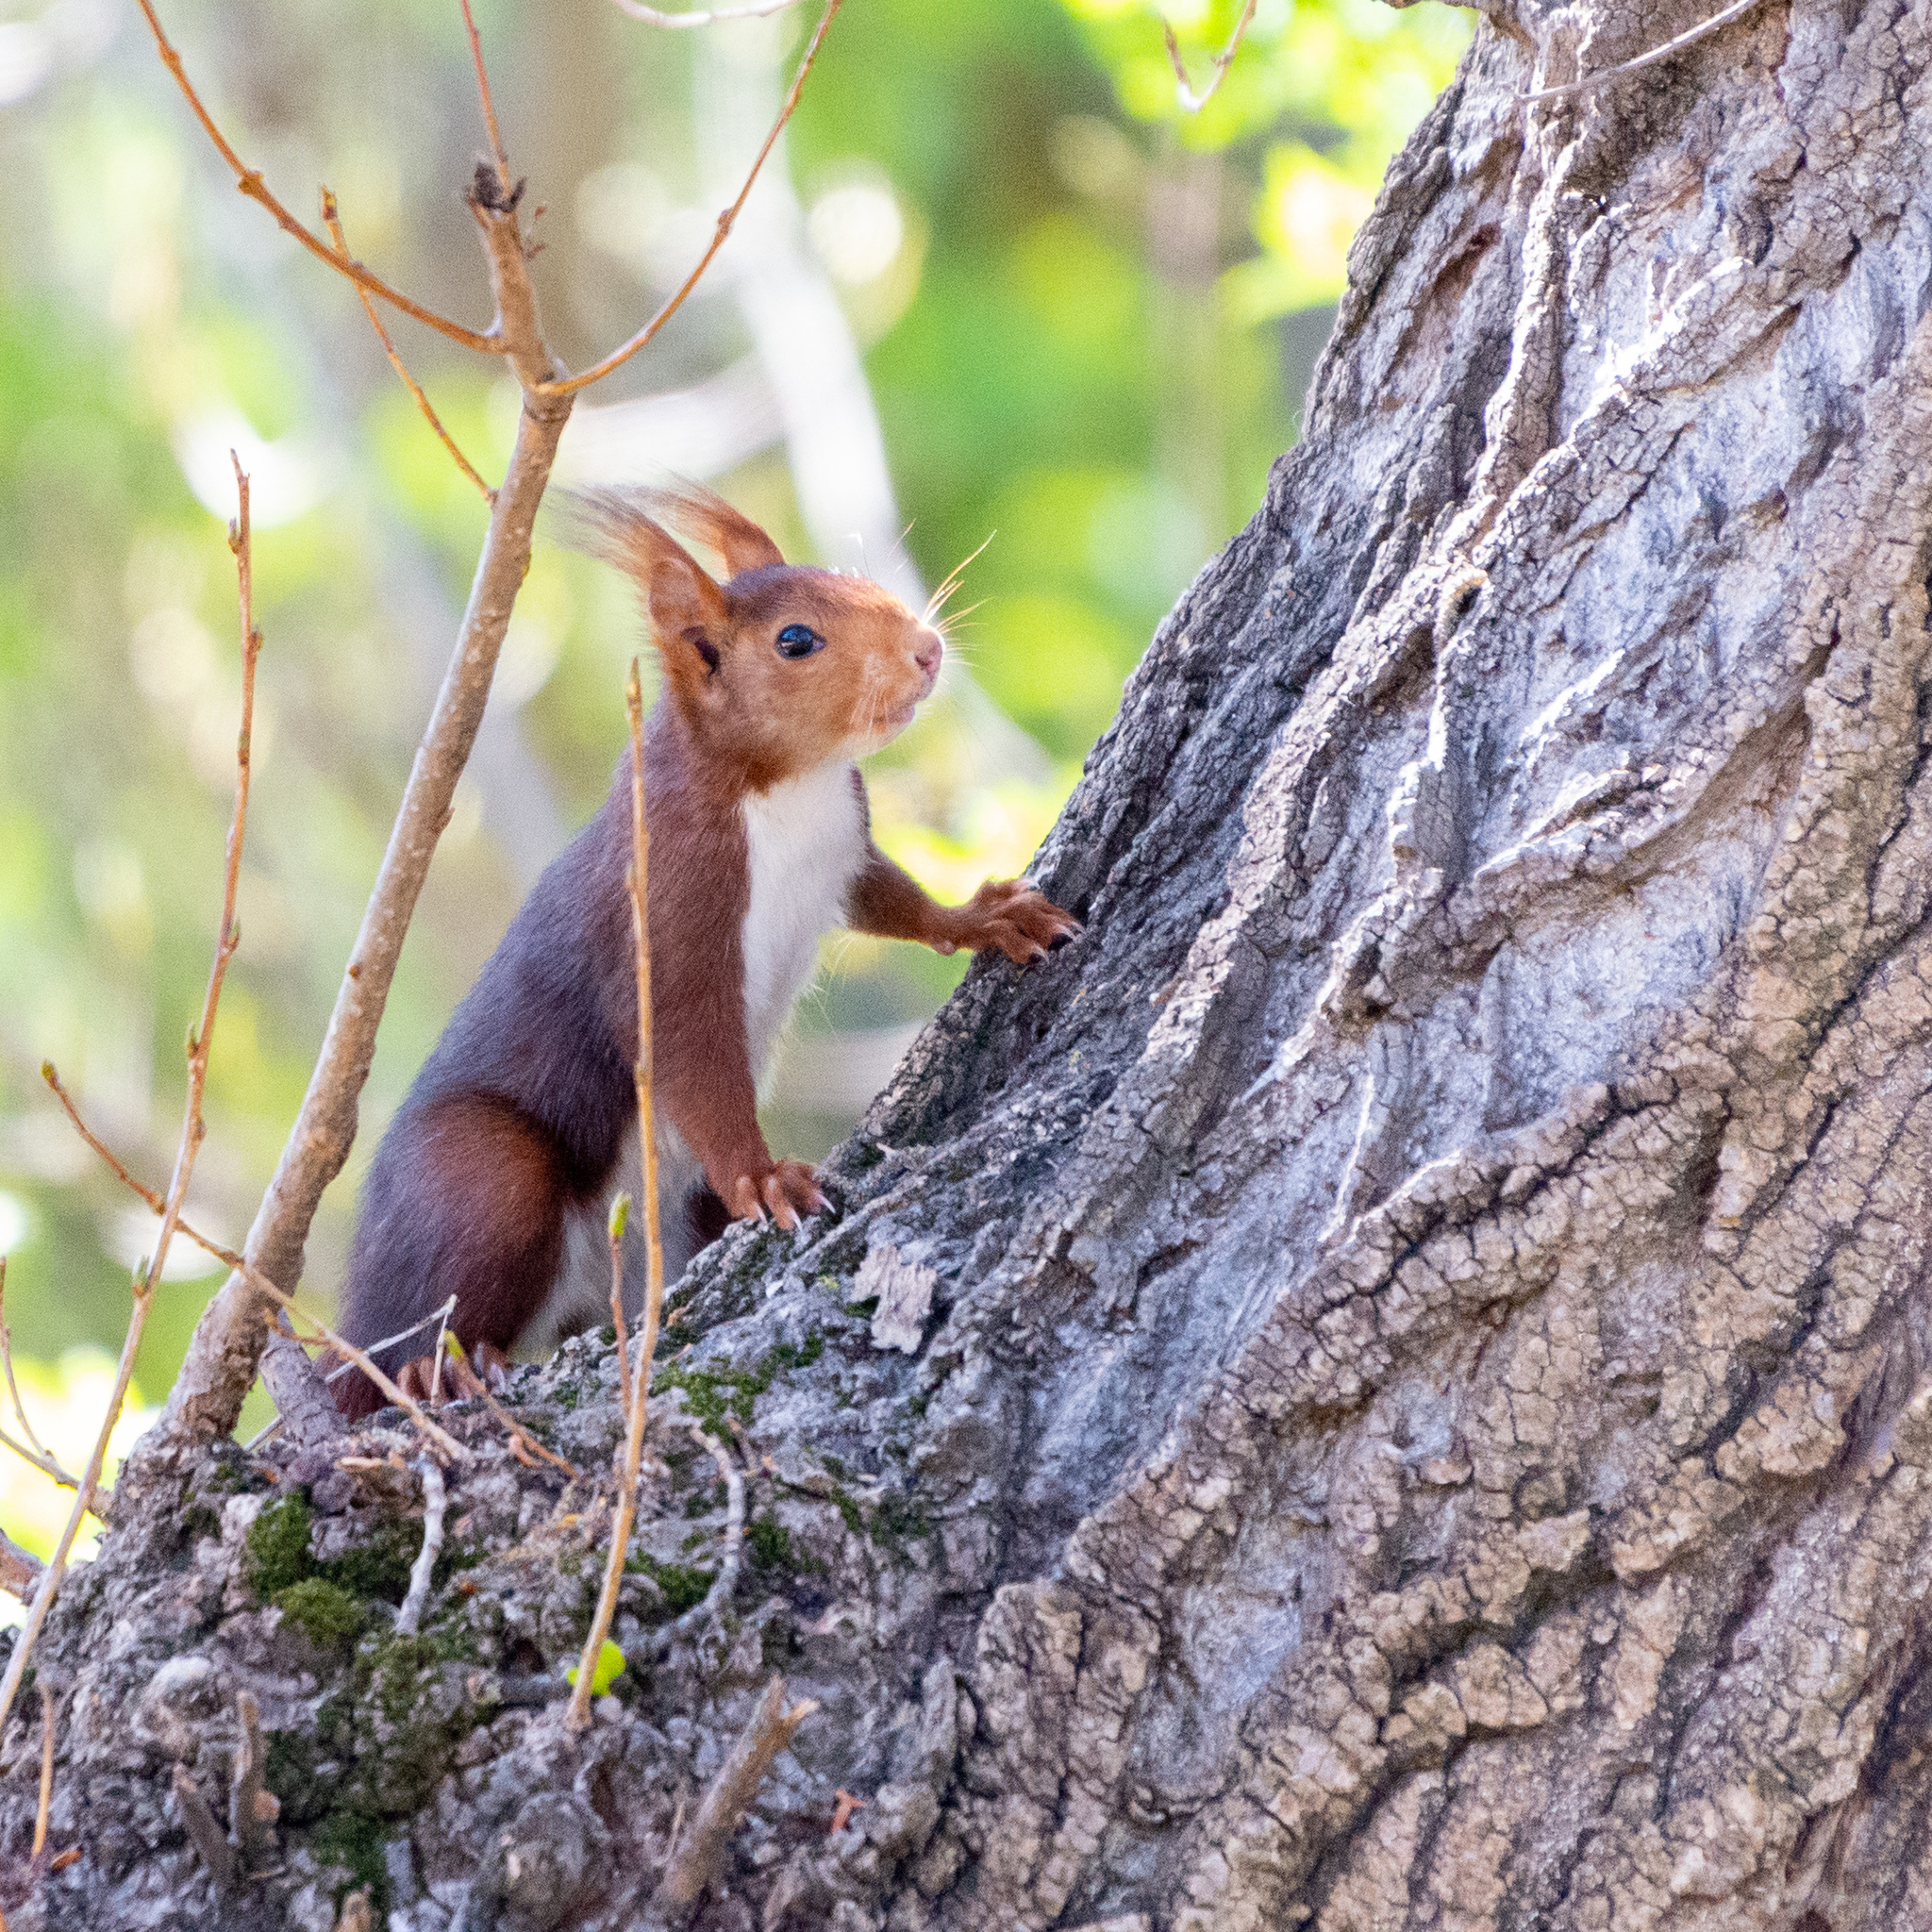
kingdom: Animalia
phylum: Chordata
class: Mammalia
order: Rodentia
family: Sciuridae
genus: Sciurus
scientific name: Sciurus vulgaris
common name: Eurasian red squirrel
